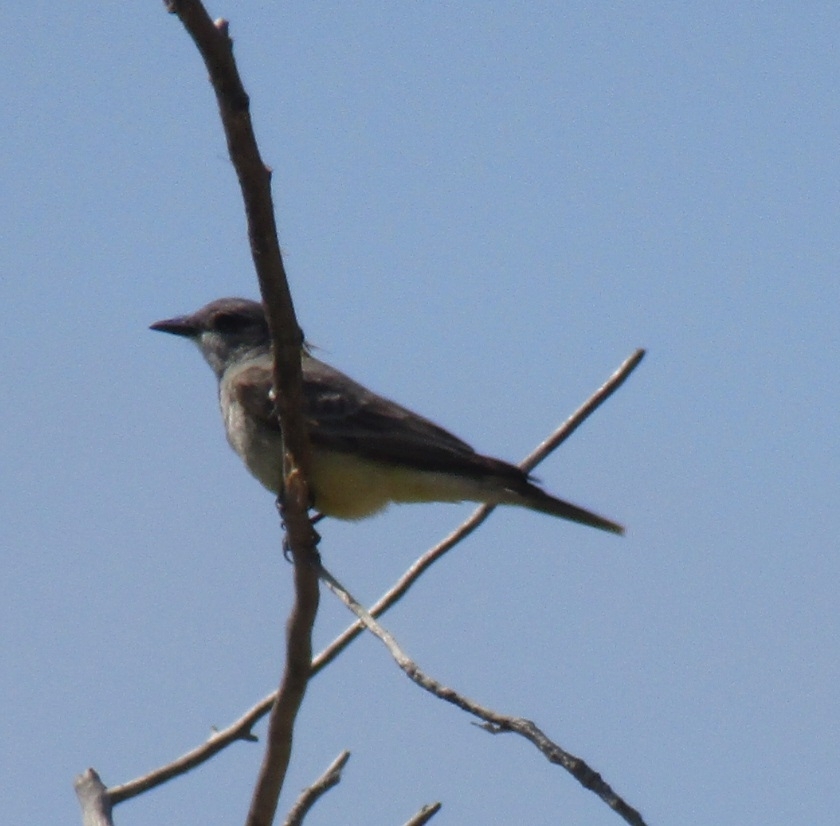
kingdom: Animalia
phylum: Chordata
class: Aves
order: Passeriformes
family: Tyrannidae
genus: Tyrannus
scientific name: Tyrannus vociferans
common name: Cassin's kingbird
